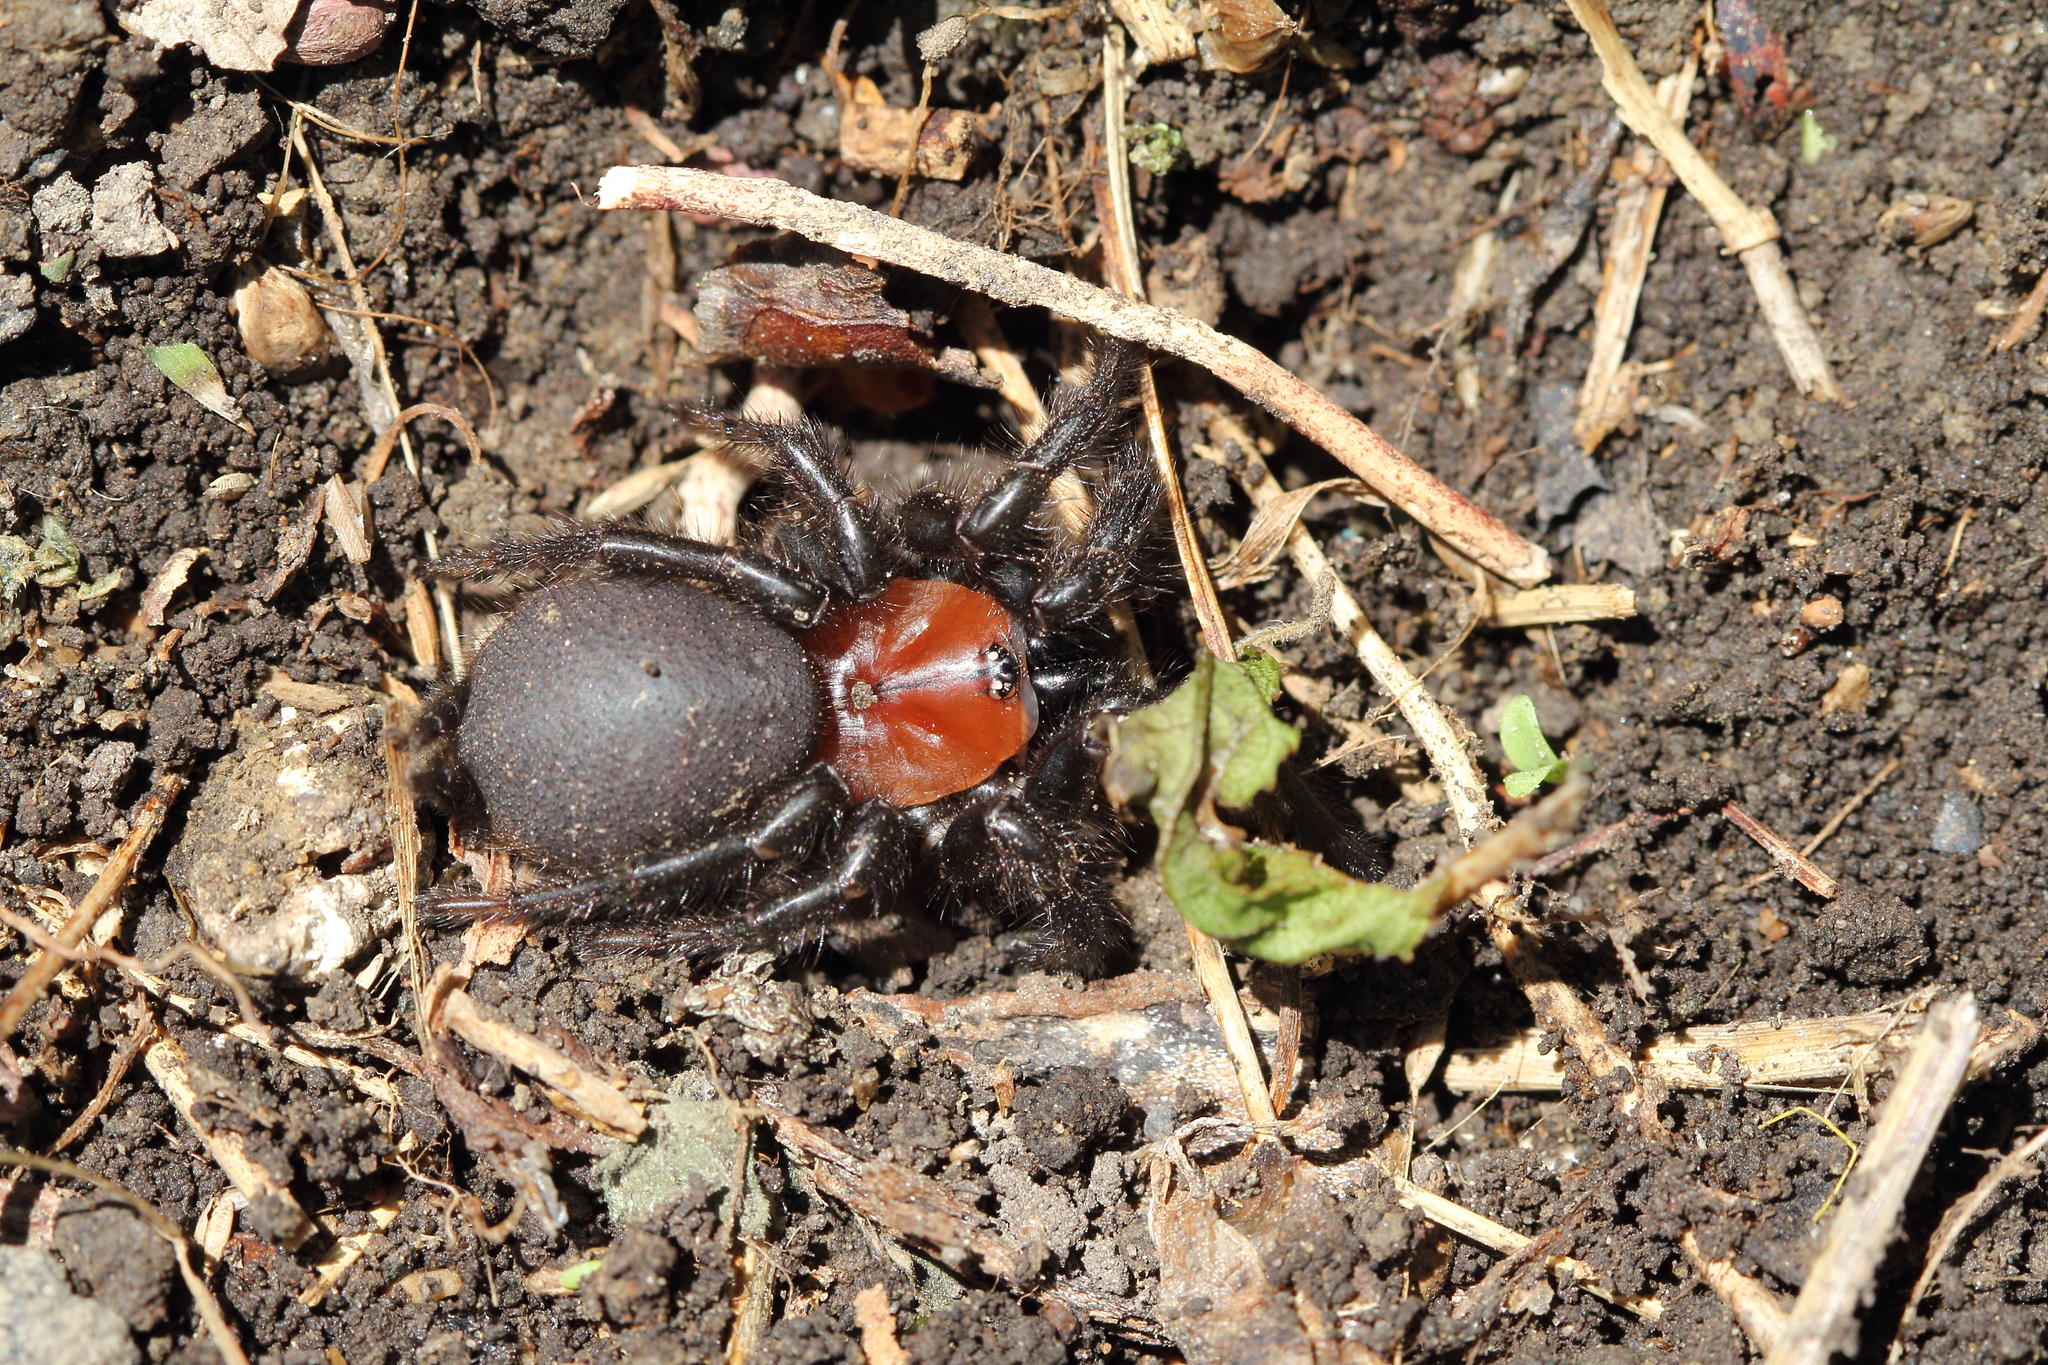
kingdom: Animalia
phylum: Arthropoda
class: Arachnida
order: Araneae
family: Porrhothelidae
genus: Porrhothele
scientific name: Porrhothele antipodiana
